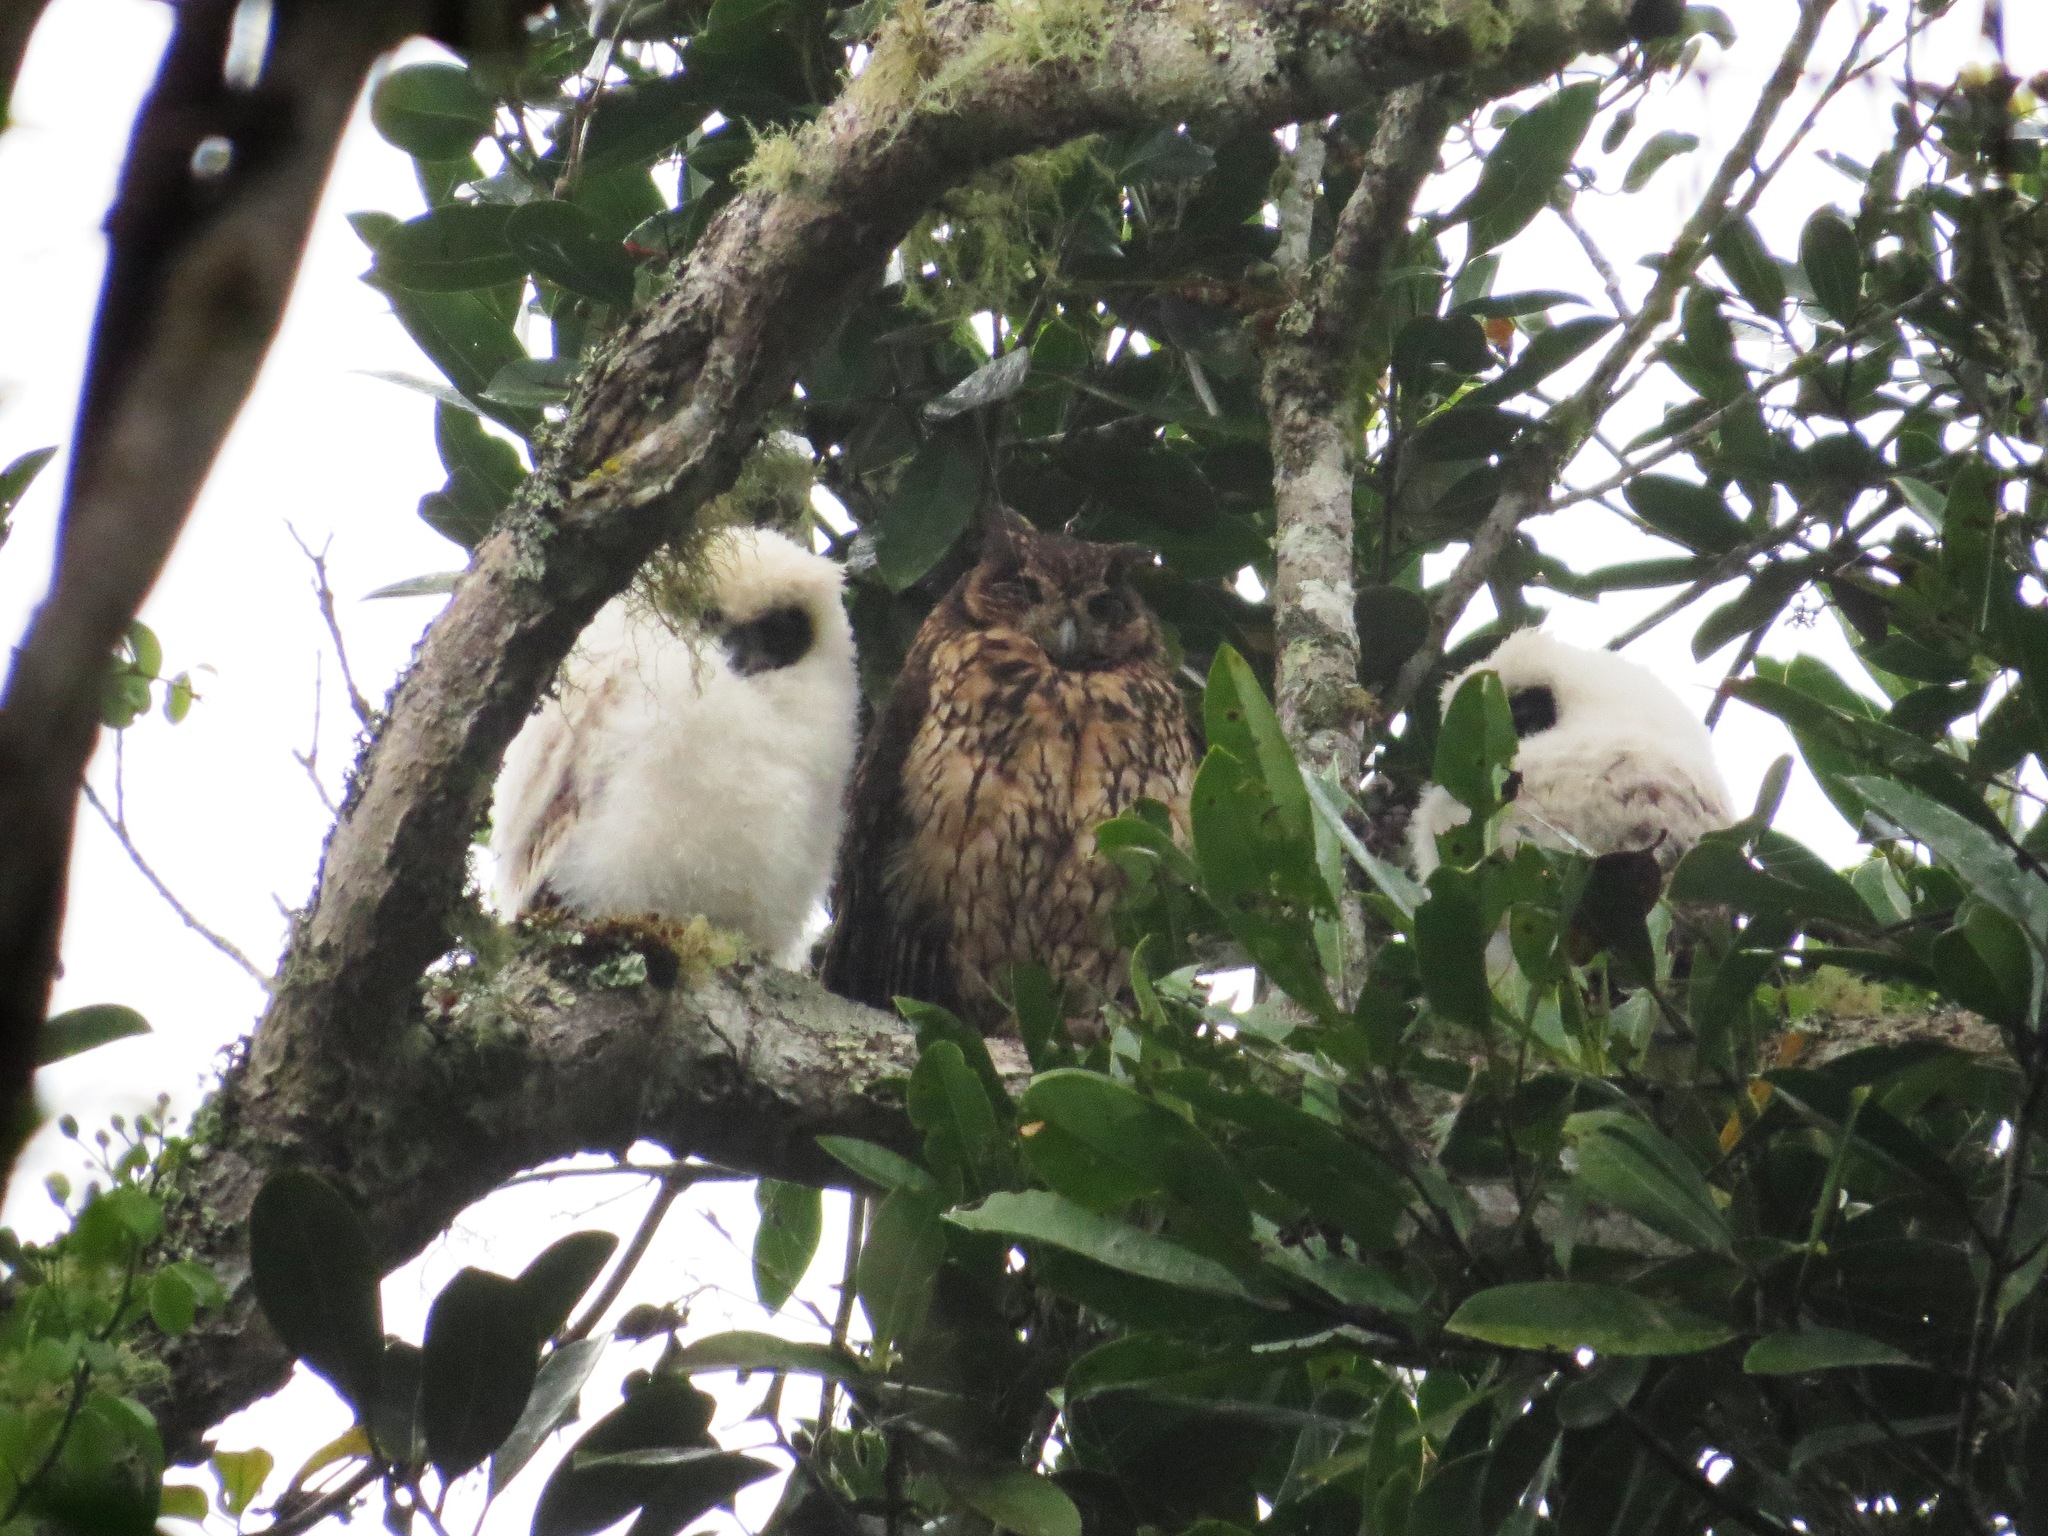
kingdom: Animalia
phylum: Chordata
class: Aves
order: Strigiformes
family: Strigidae
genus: Asio
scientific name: Asio madagascariensis
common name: Madagascar long-eared owl
